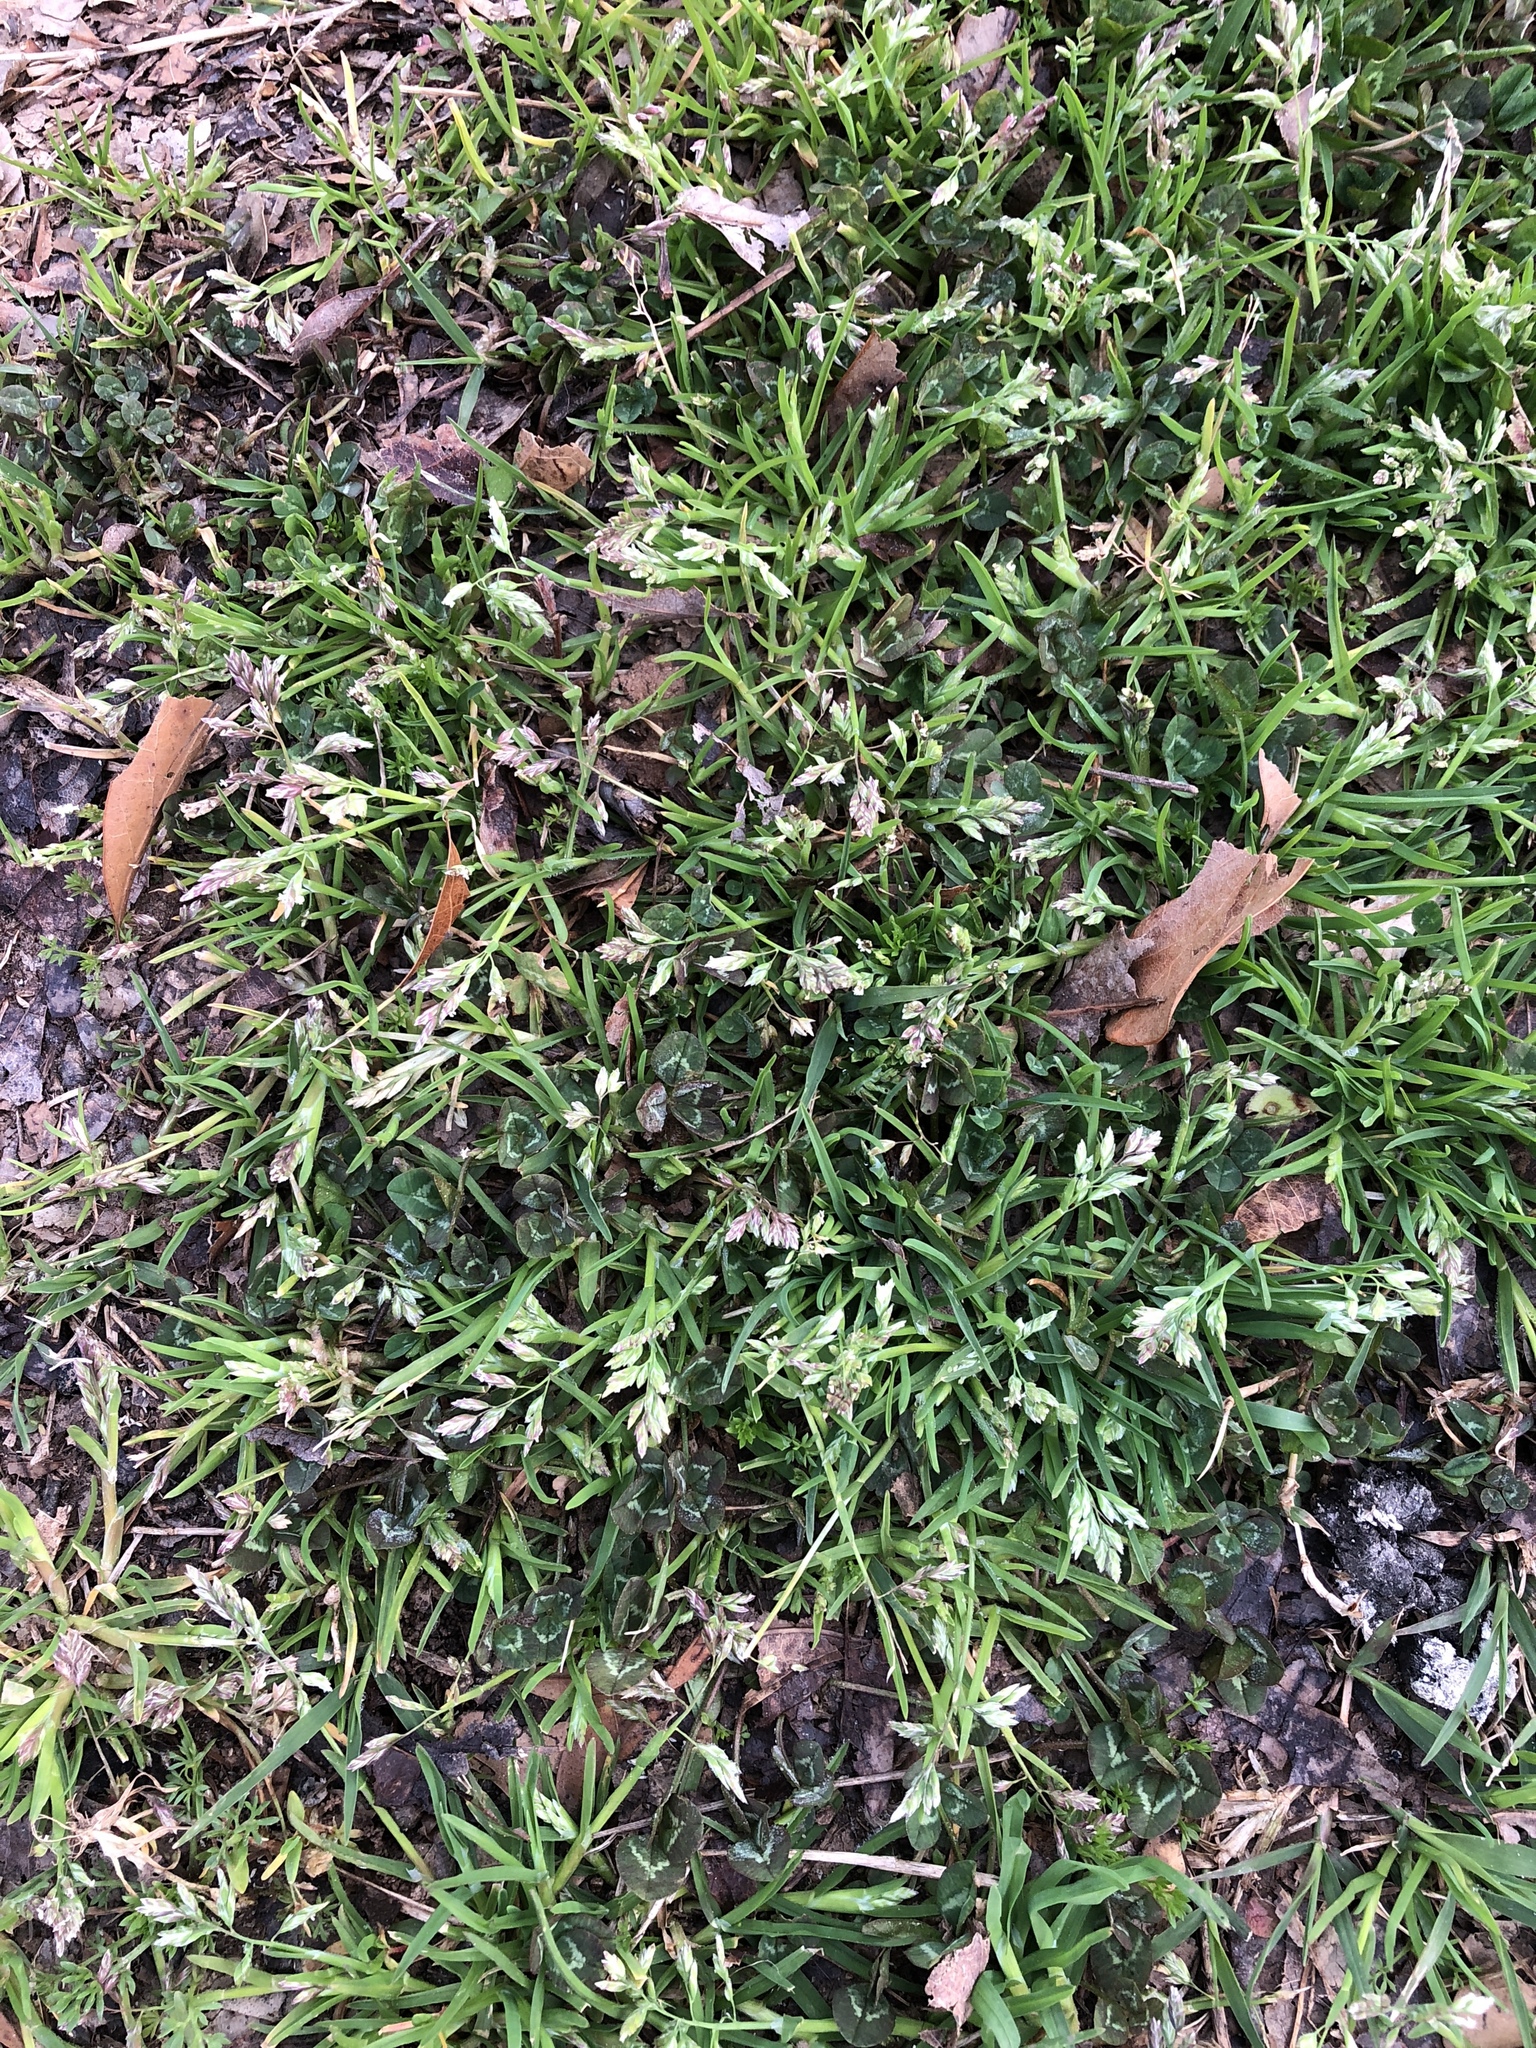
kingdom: Plantae
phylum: Tracheophyta
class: Liliopsida
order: Poales
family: Poaceae
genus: Poa
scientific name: Poa annua
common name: Annual bluegrass
